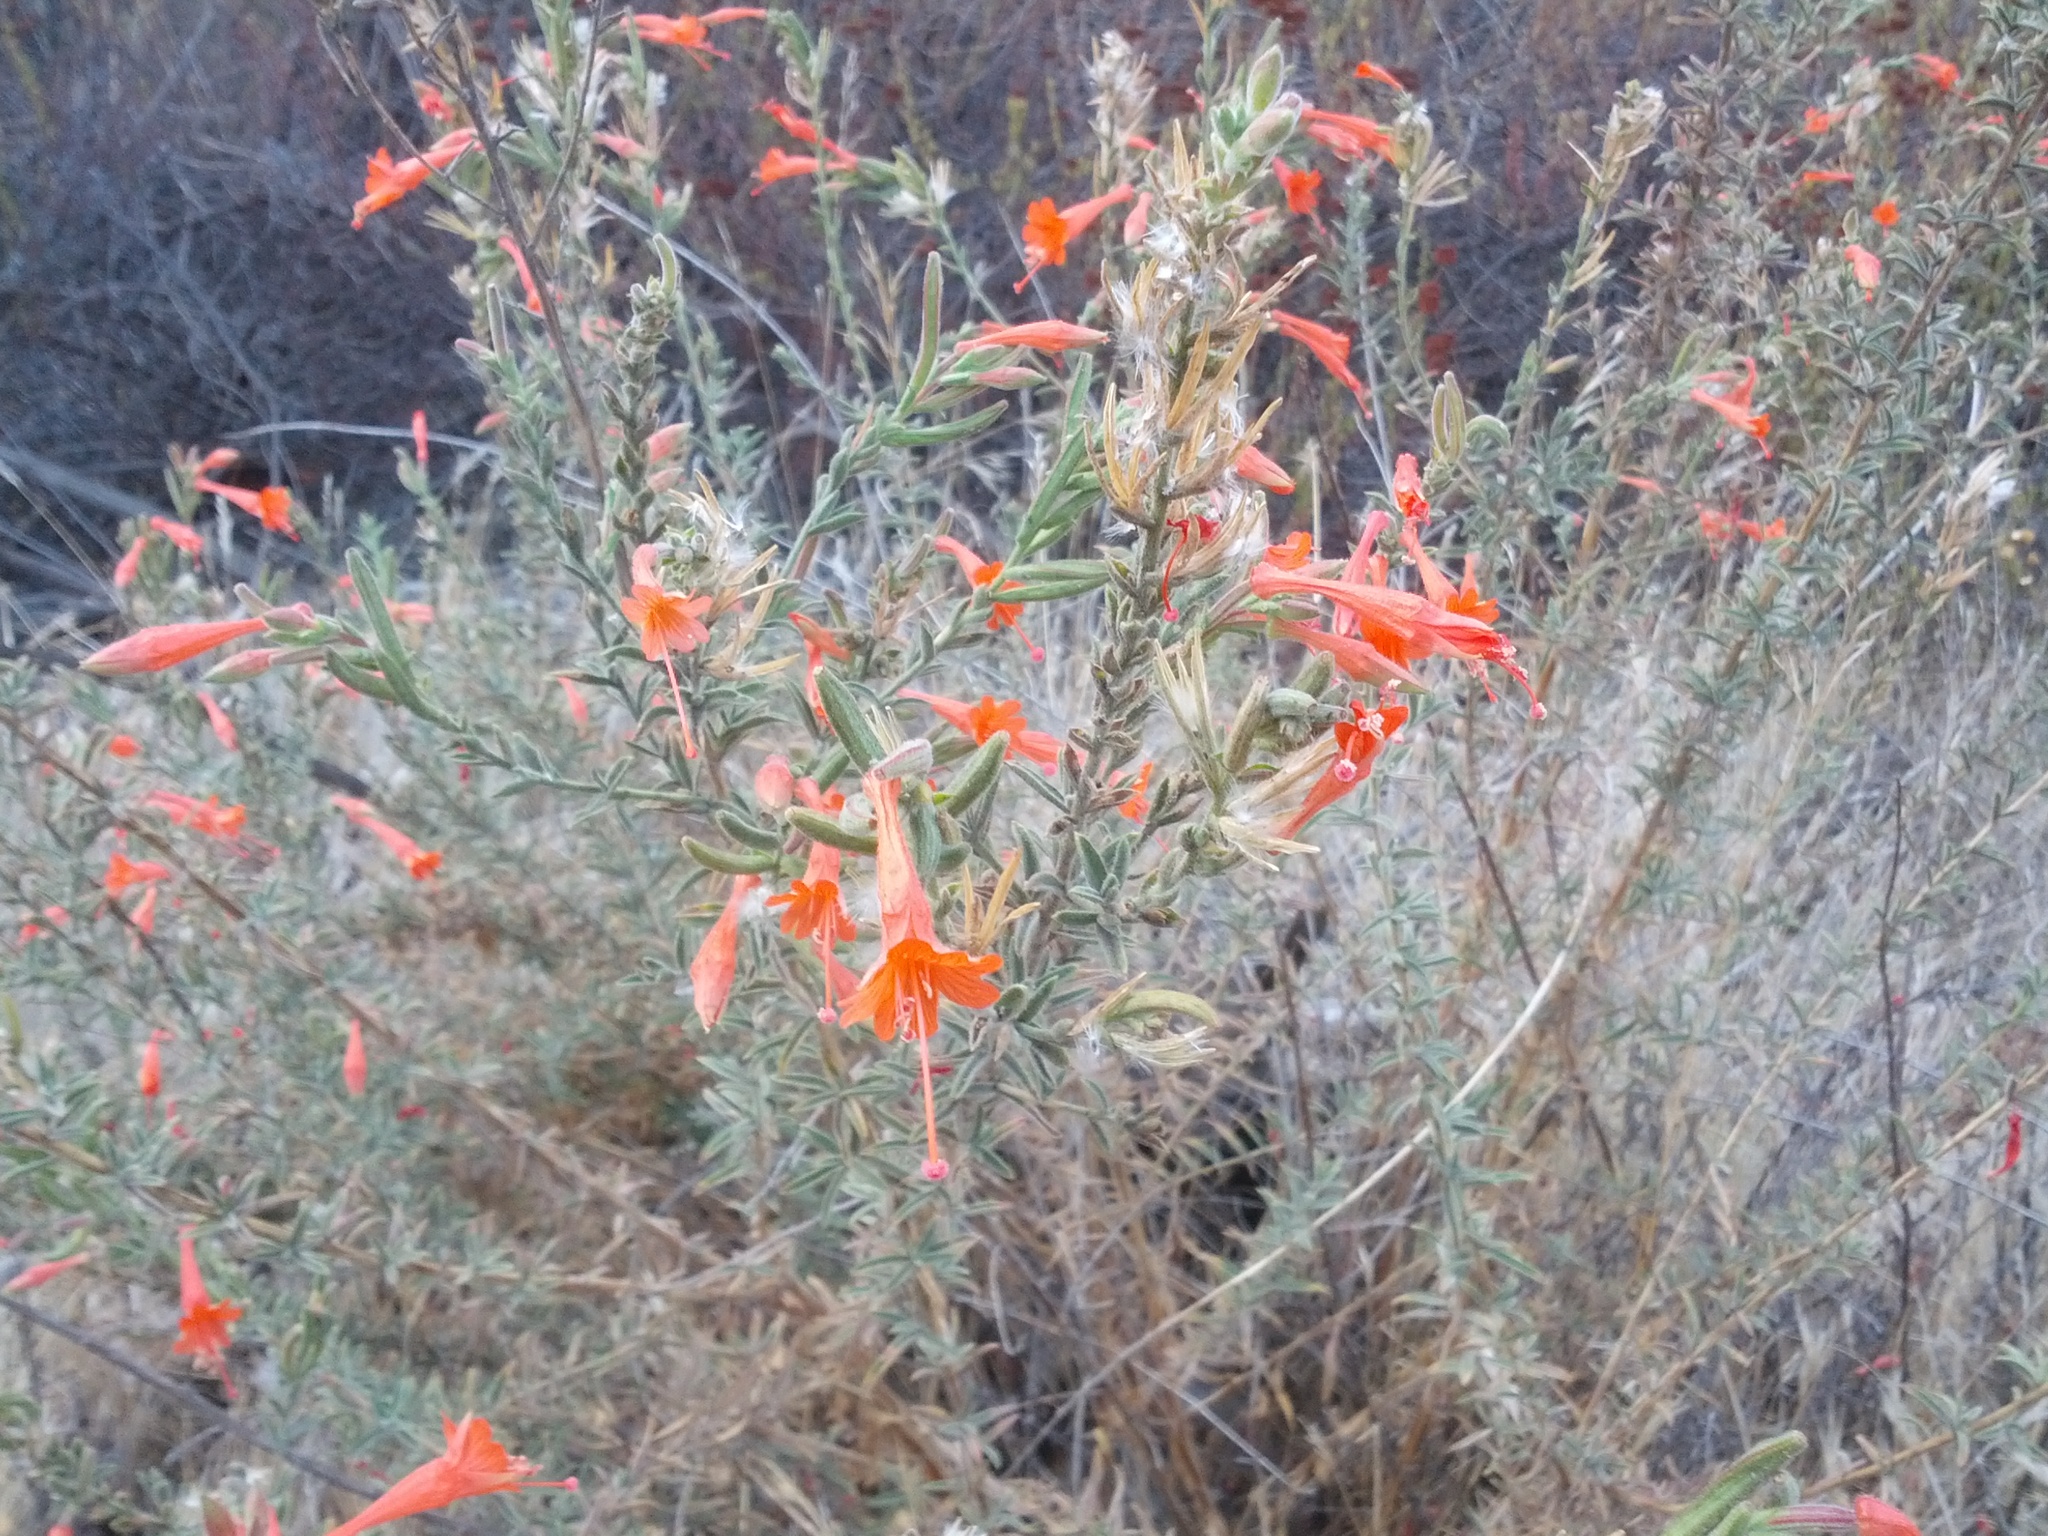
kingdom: Plantae
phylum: Tracheophyta
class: Magnoliopsida
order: Myrtales
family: Onagraceae
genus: Epilobium
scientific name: Epilobium canum
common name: California-fuchsia
